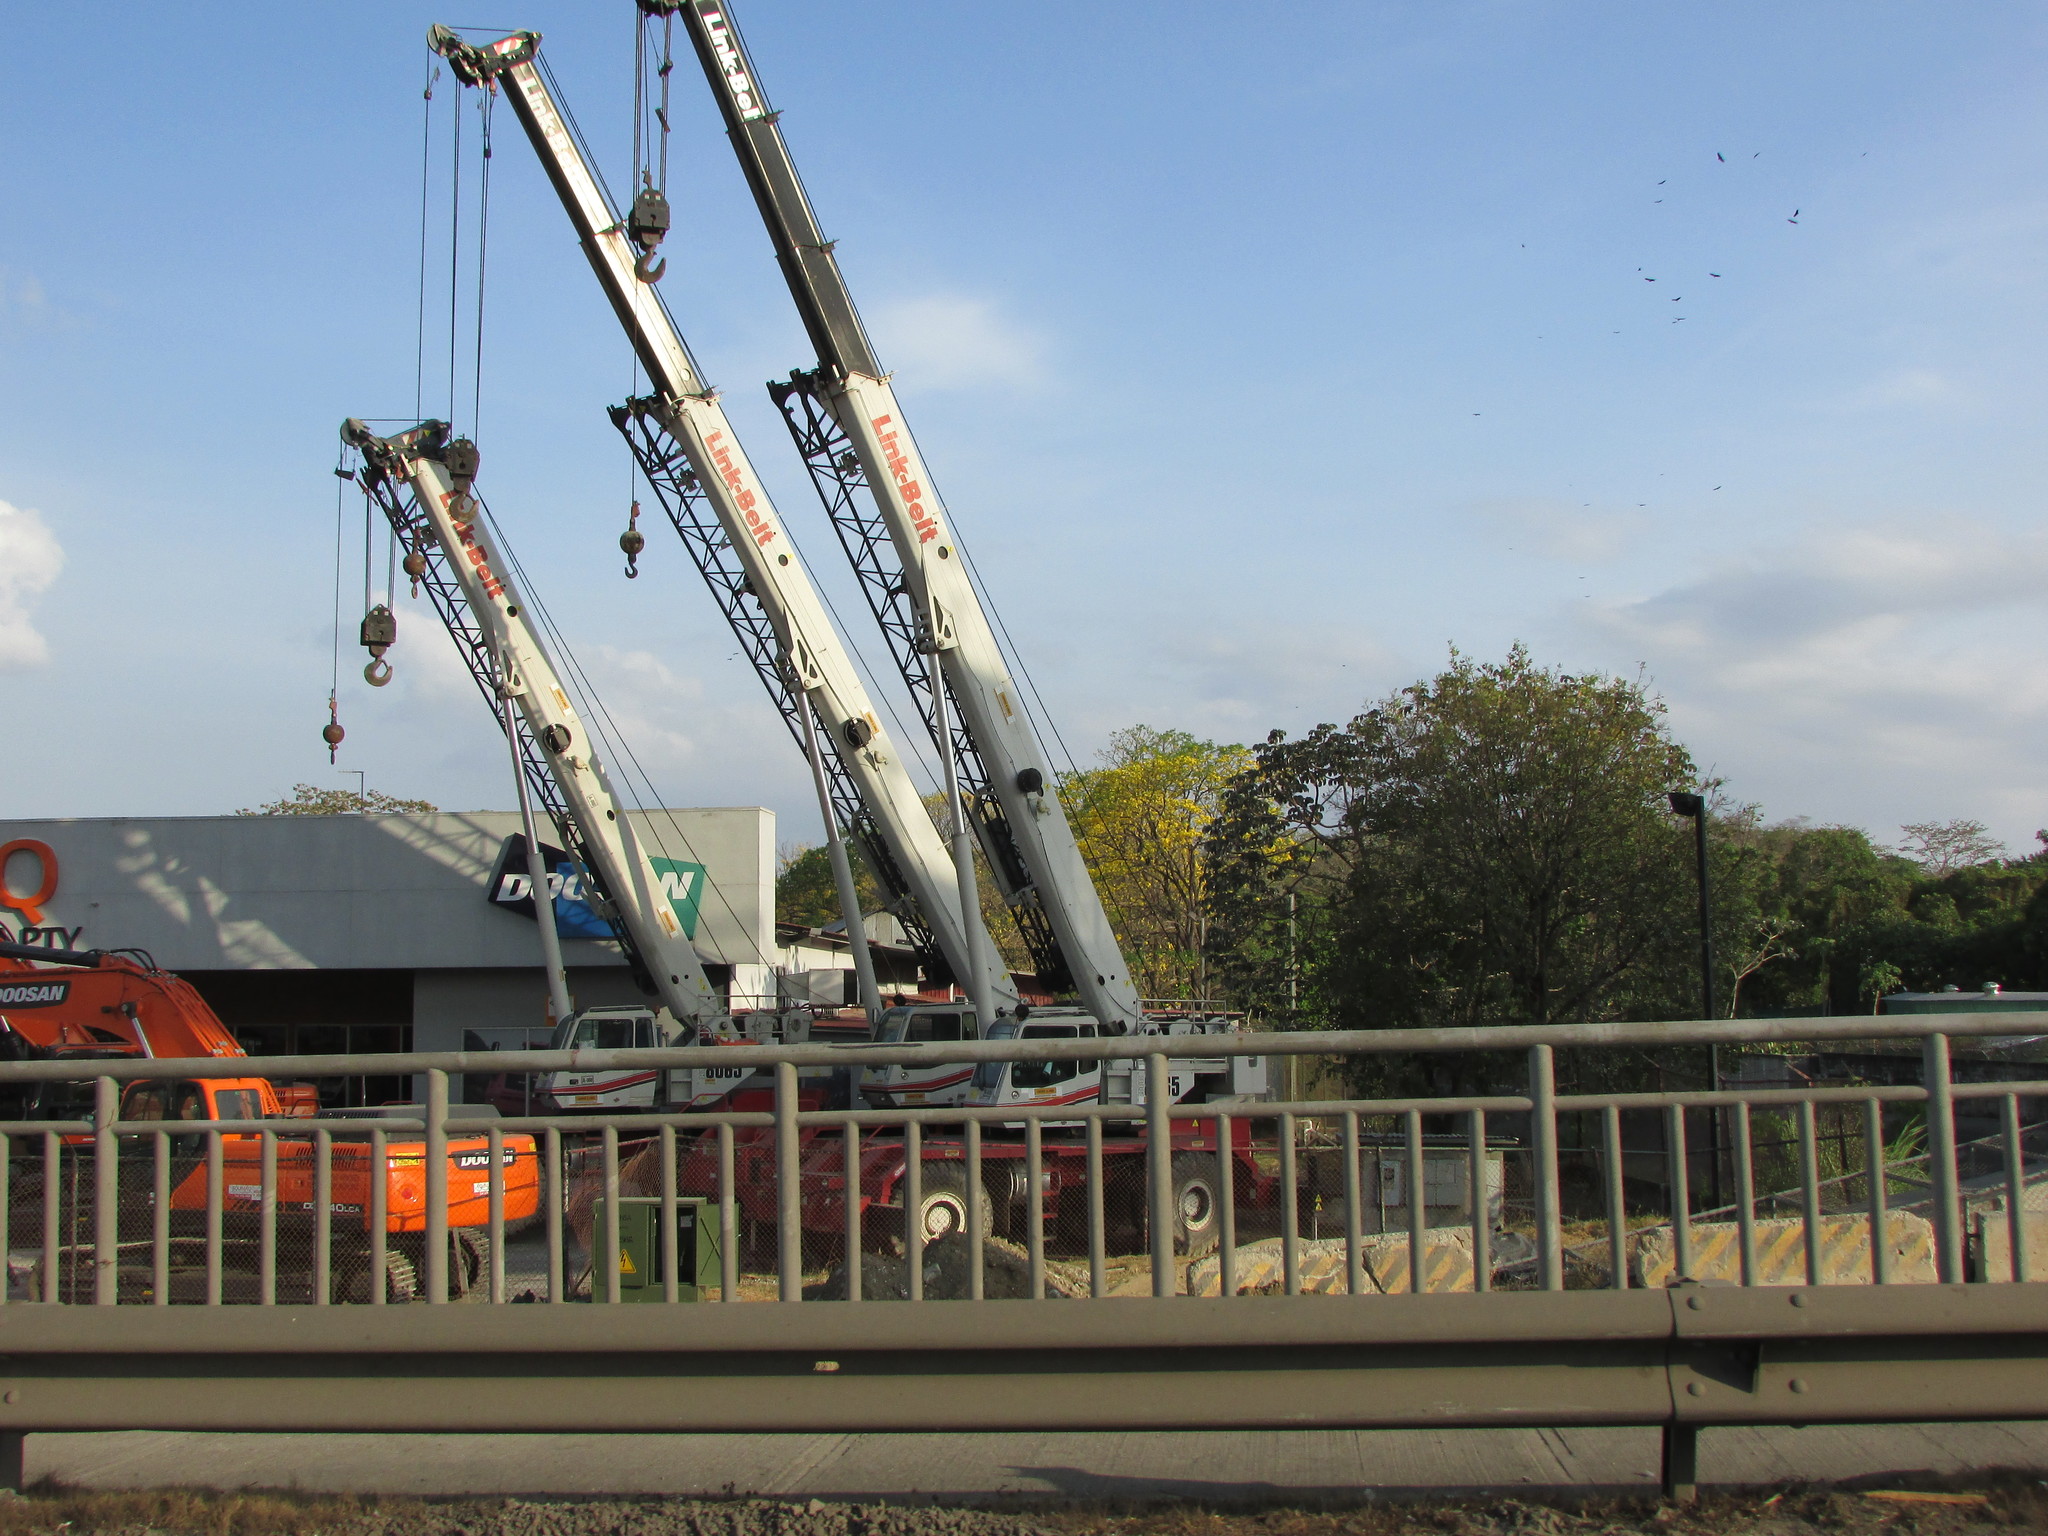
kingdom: Plantae
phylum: Tracheophyta
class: Magnoliopsida
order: Lamiales
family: Bignoniaceae
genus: Handroanthus
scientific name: Handroanthus guayacan
